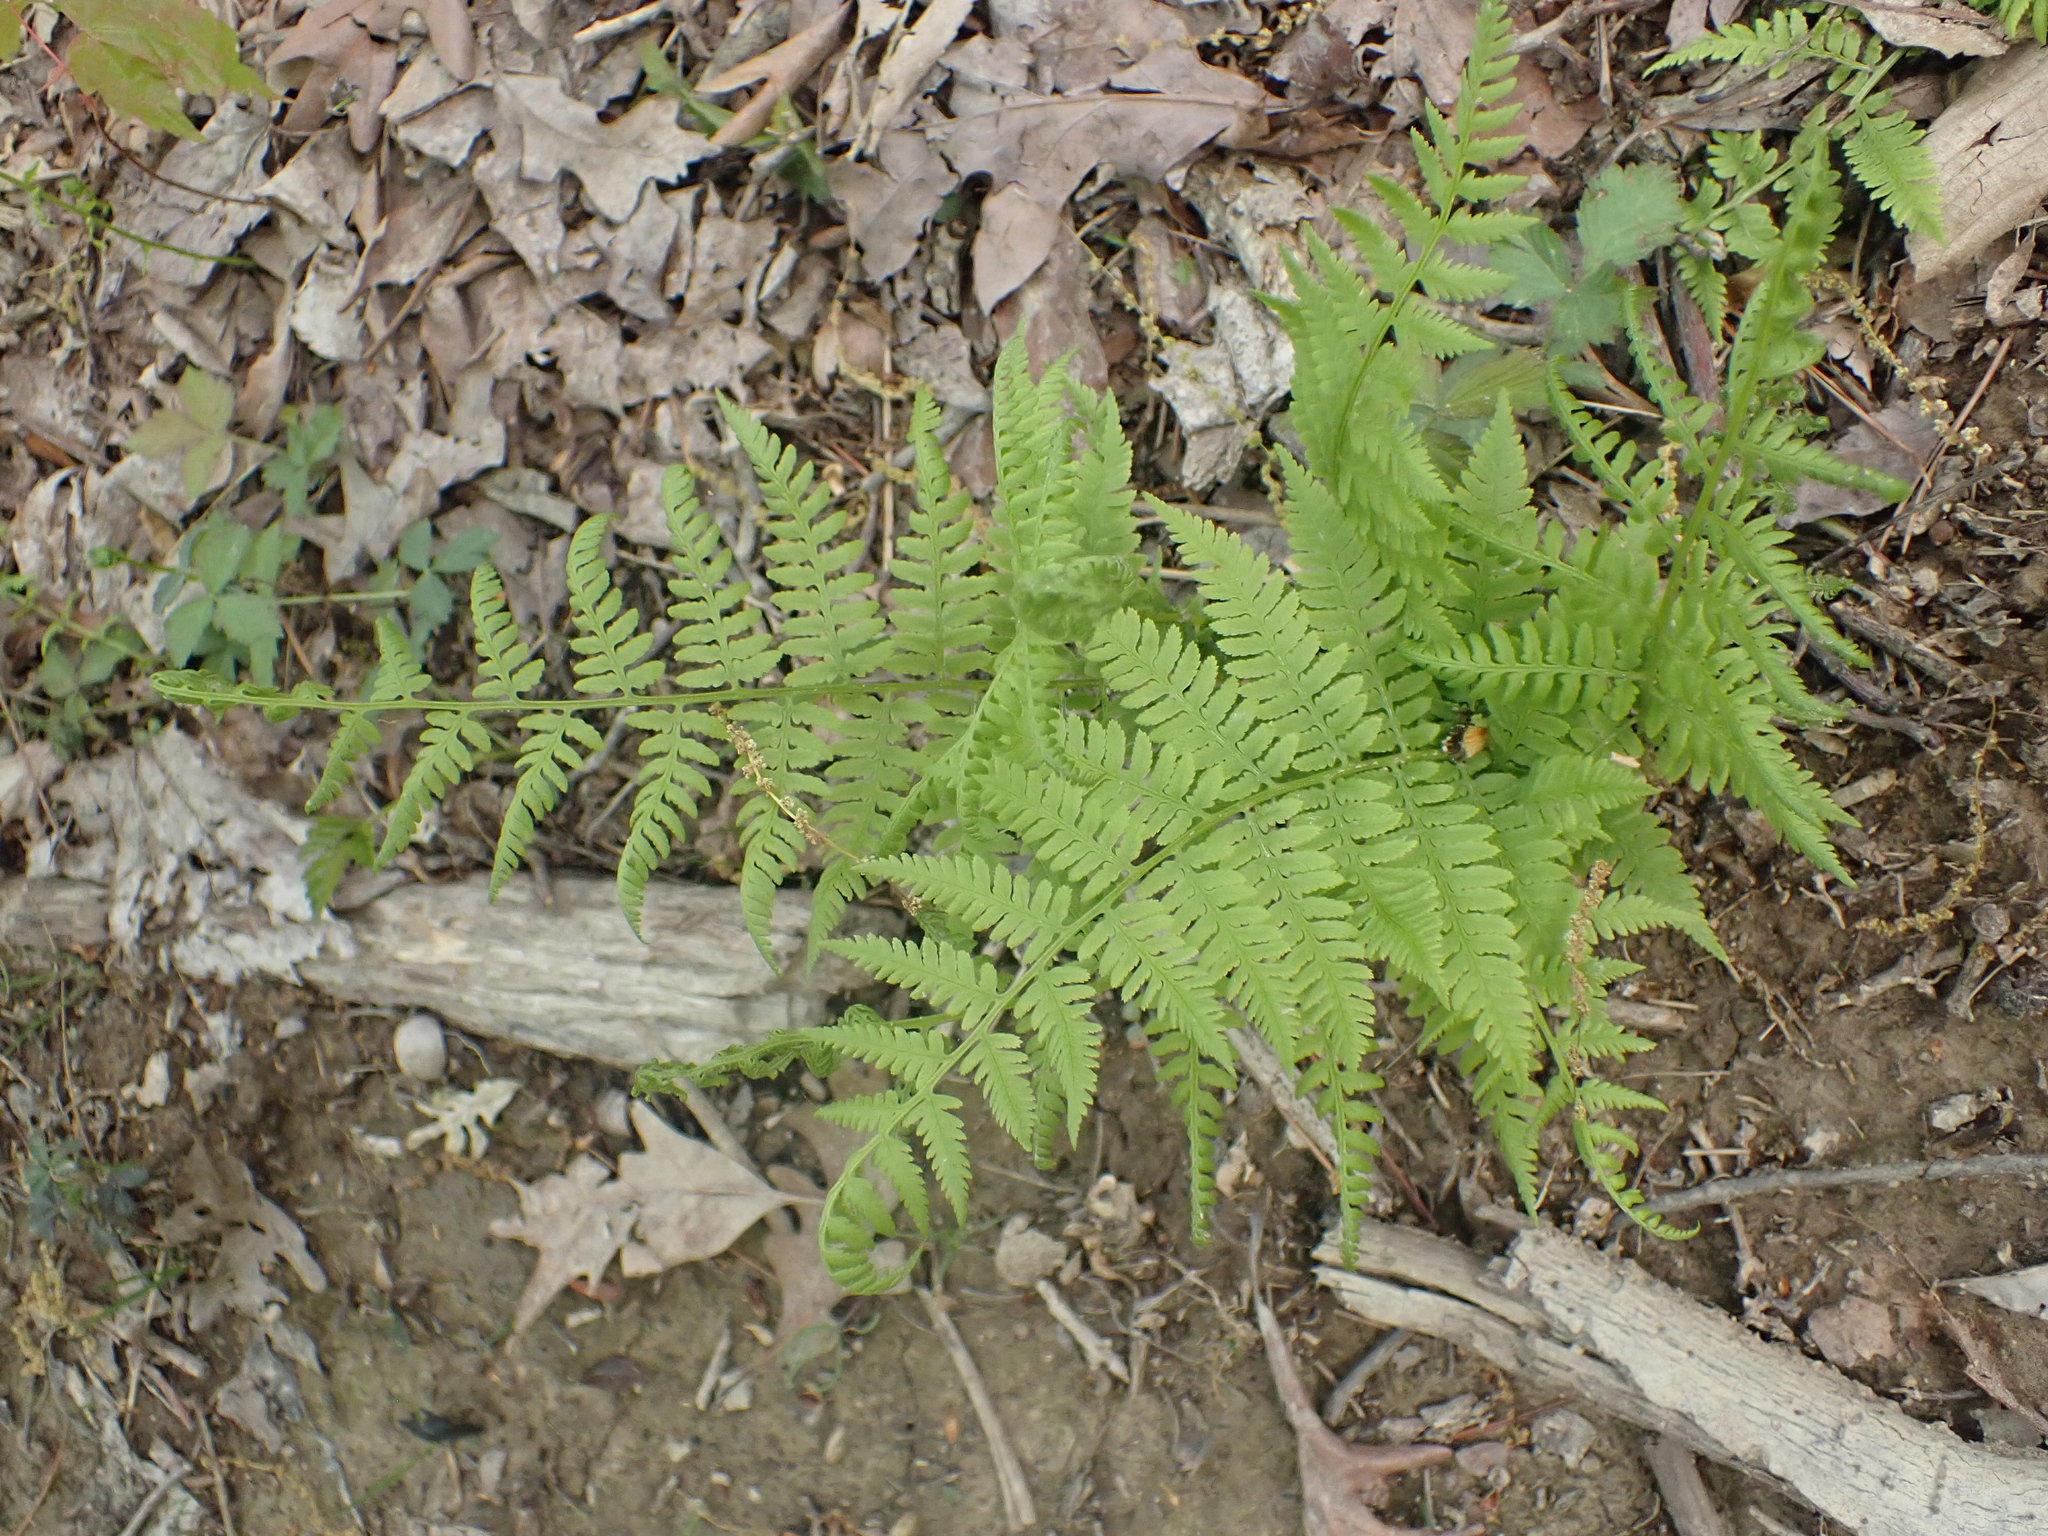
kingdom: Plantae
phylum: Tracheophyta
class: Polypodiopsida
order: Polypodiales
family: Athyriaceae
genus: Athyrium
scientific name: Athyrium asplenioides
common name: Southern lady fern
